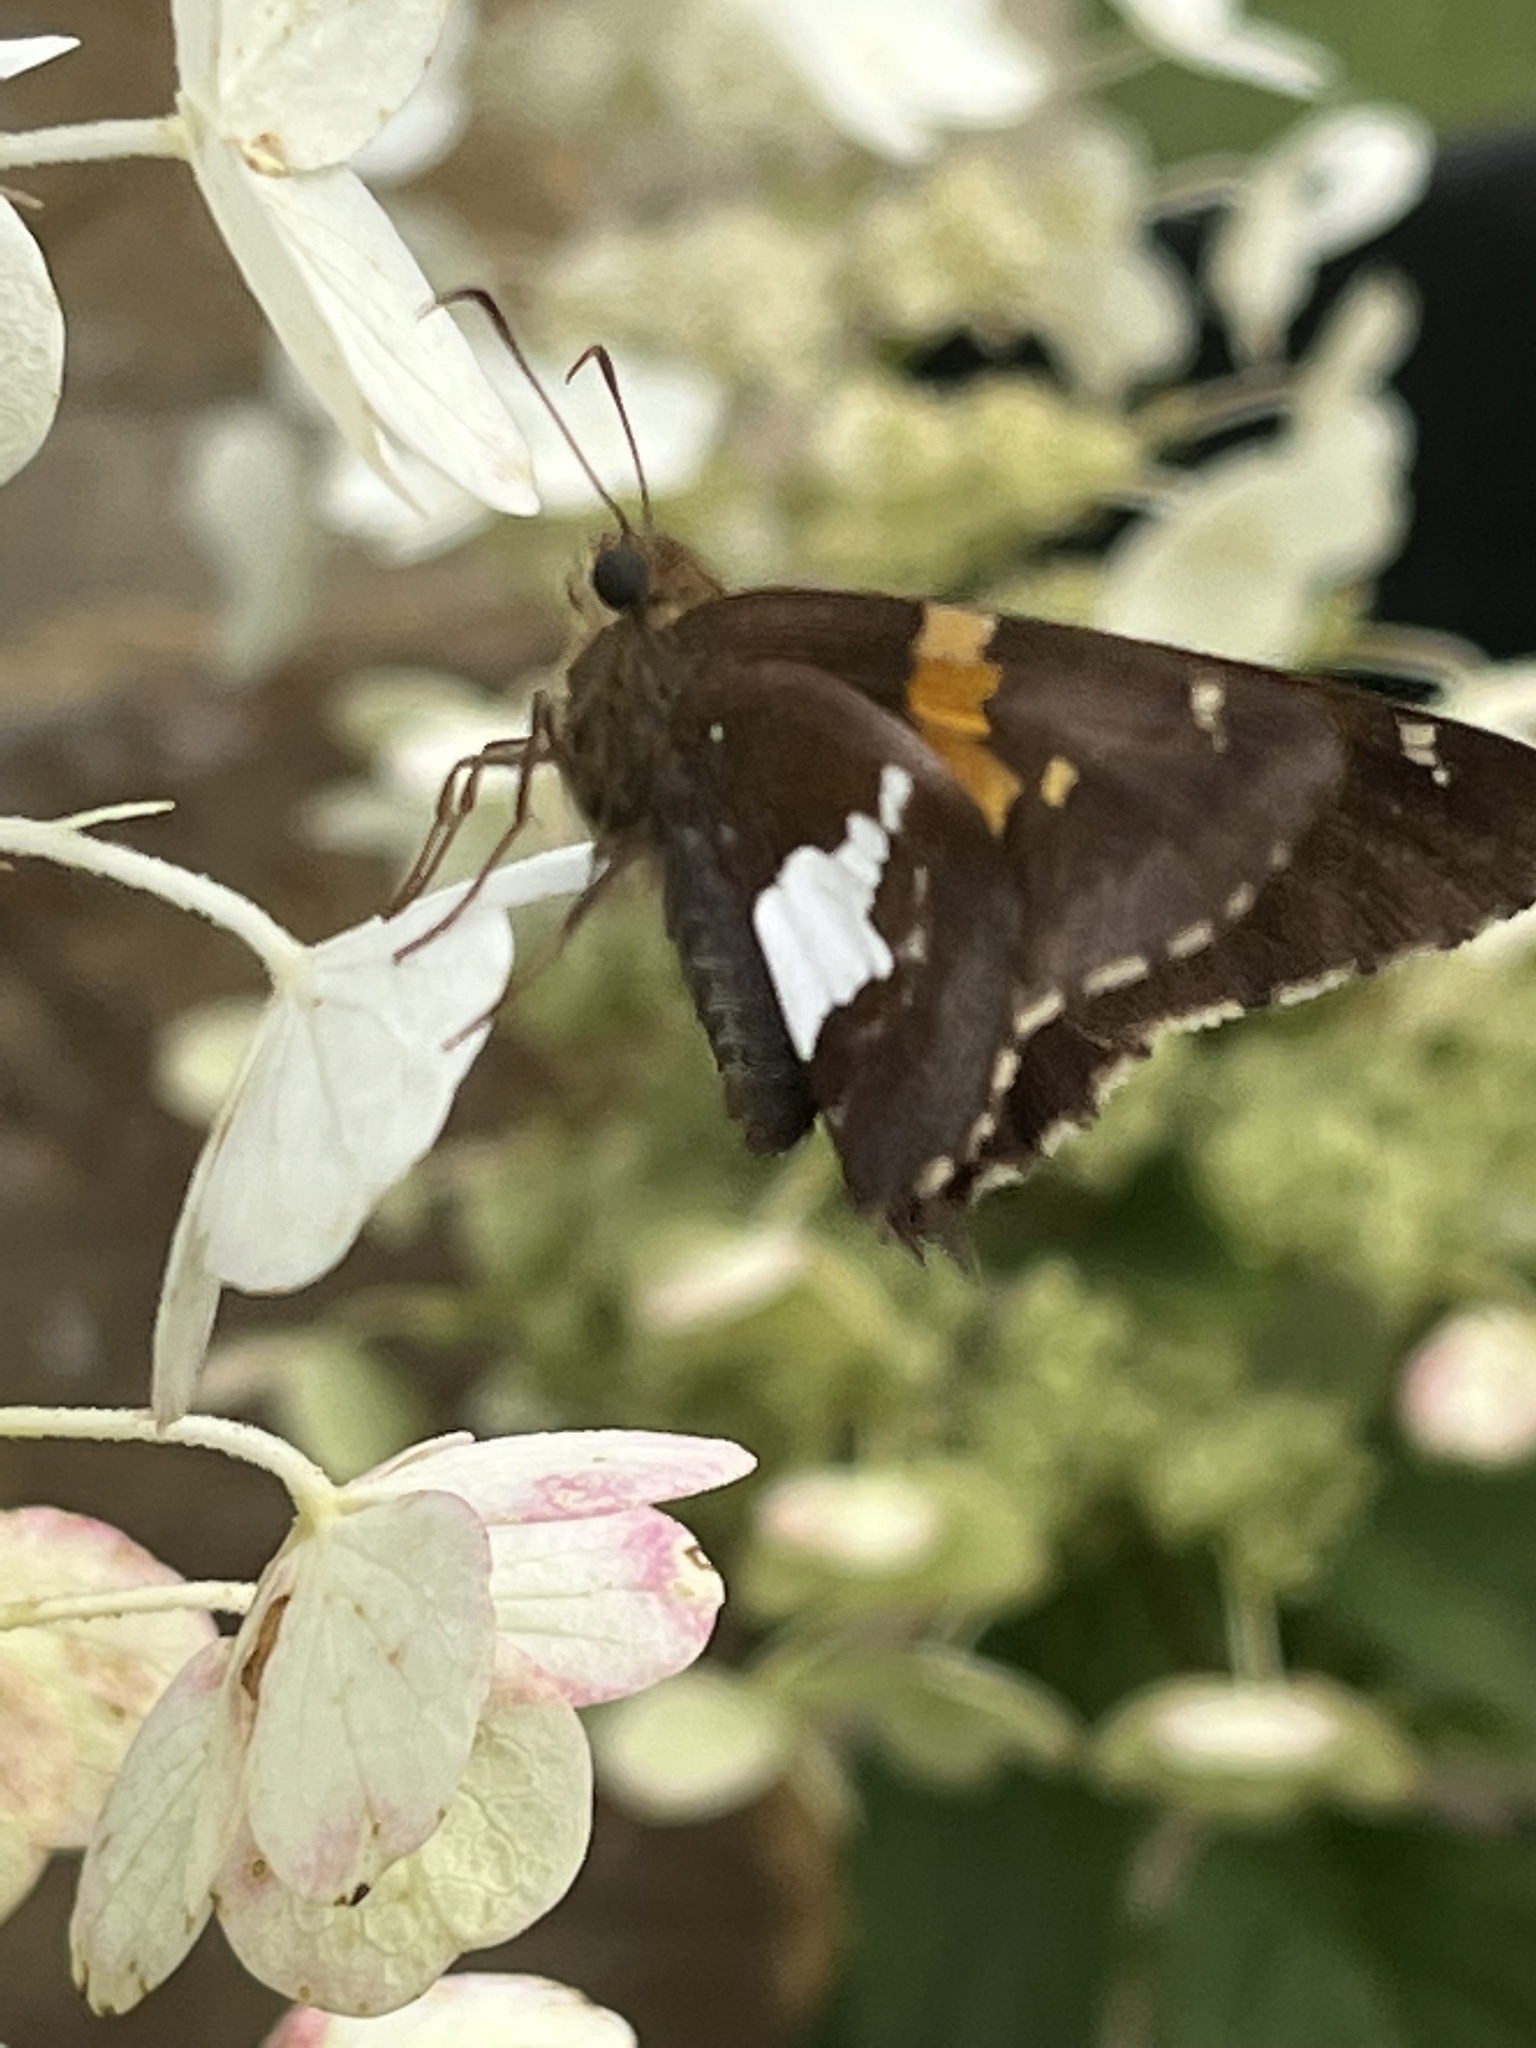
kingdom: Animalia
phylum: Arthropoda
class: Insecta
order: Lepidoptera
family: Hesperiidae
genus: Epargyreus
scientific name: Epargyreus clarus
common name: Silver-spotted skipper
